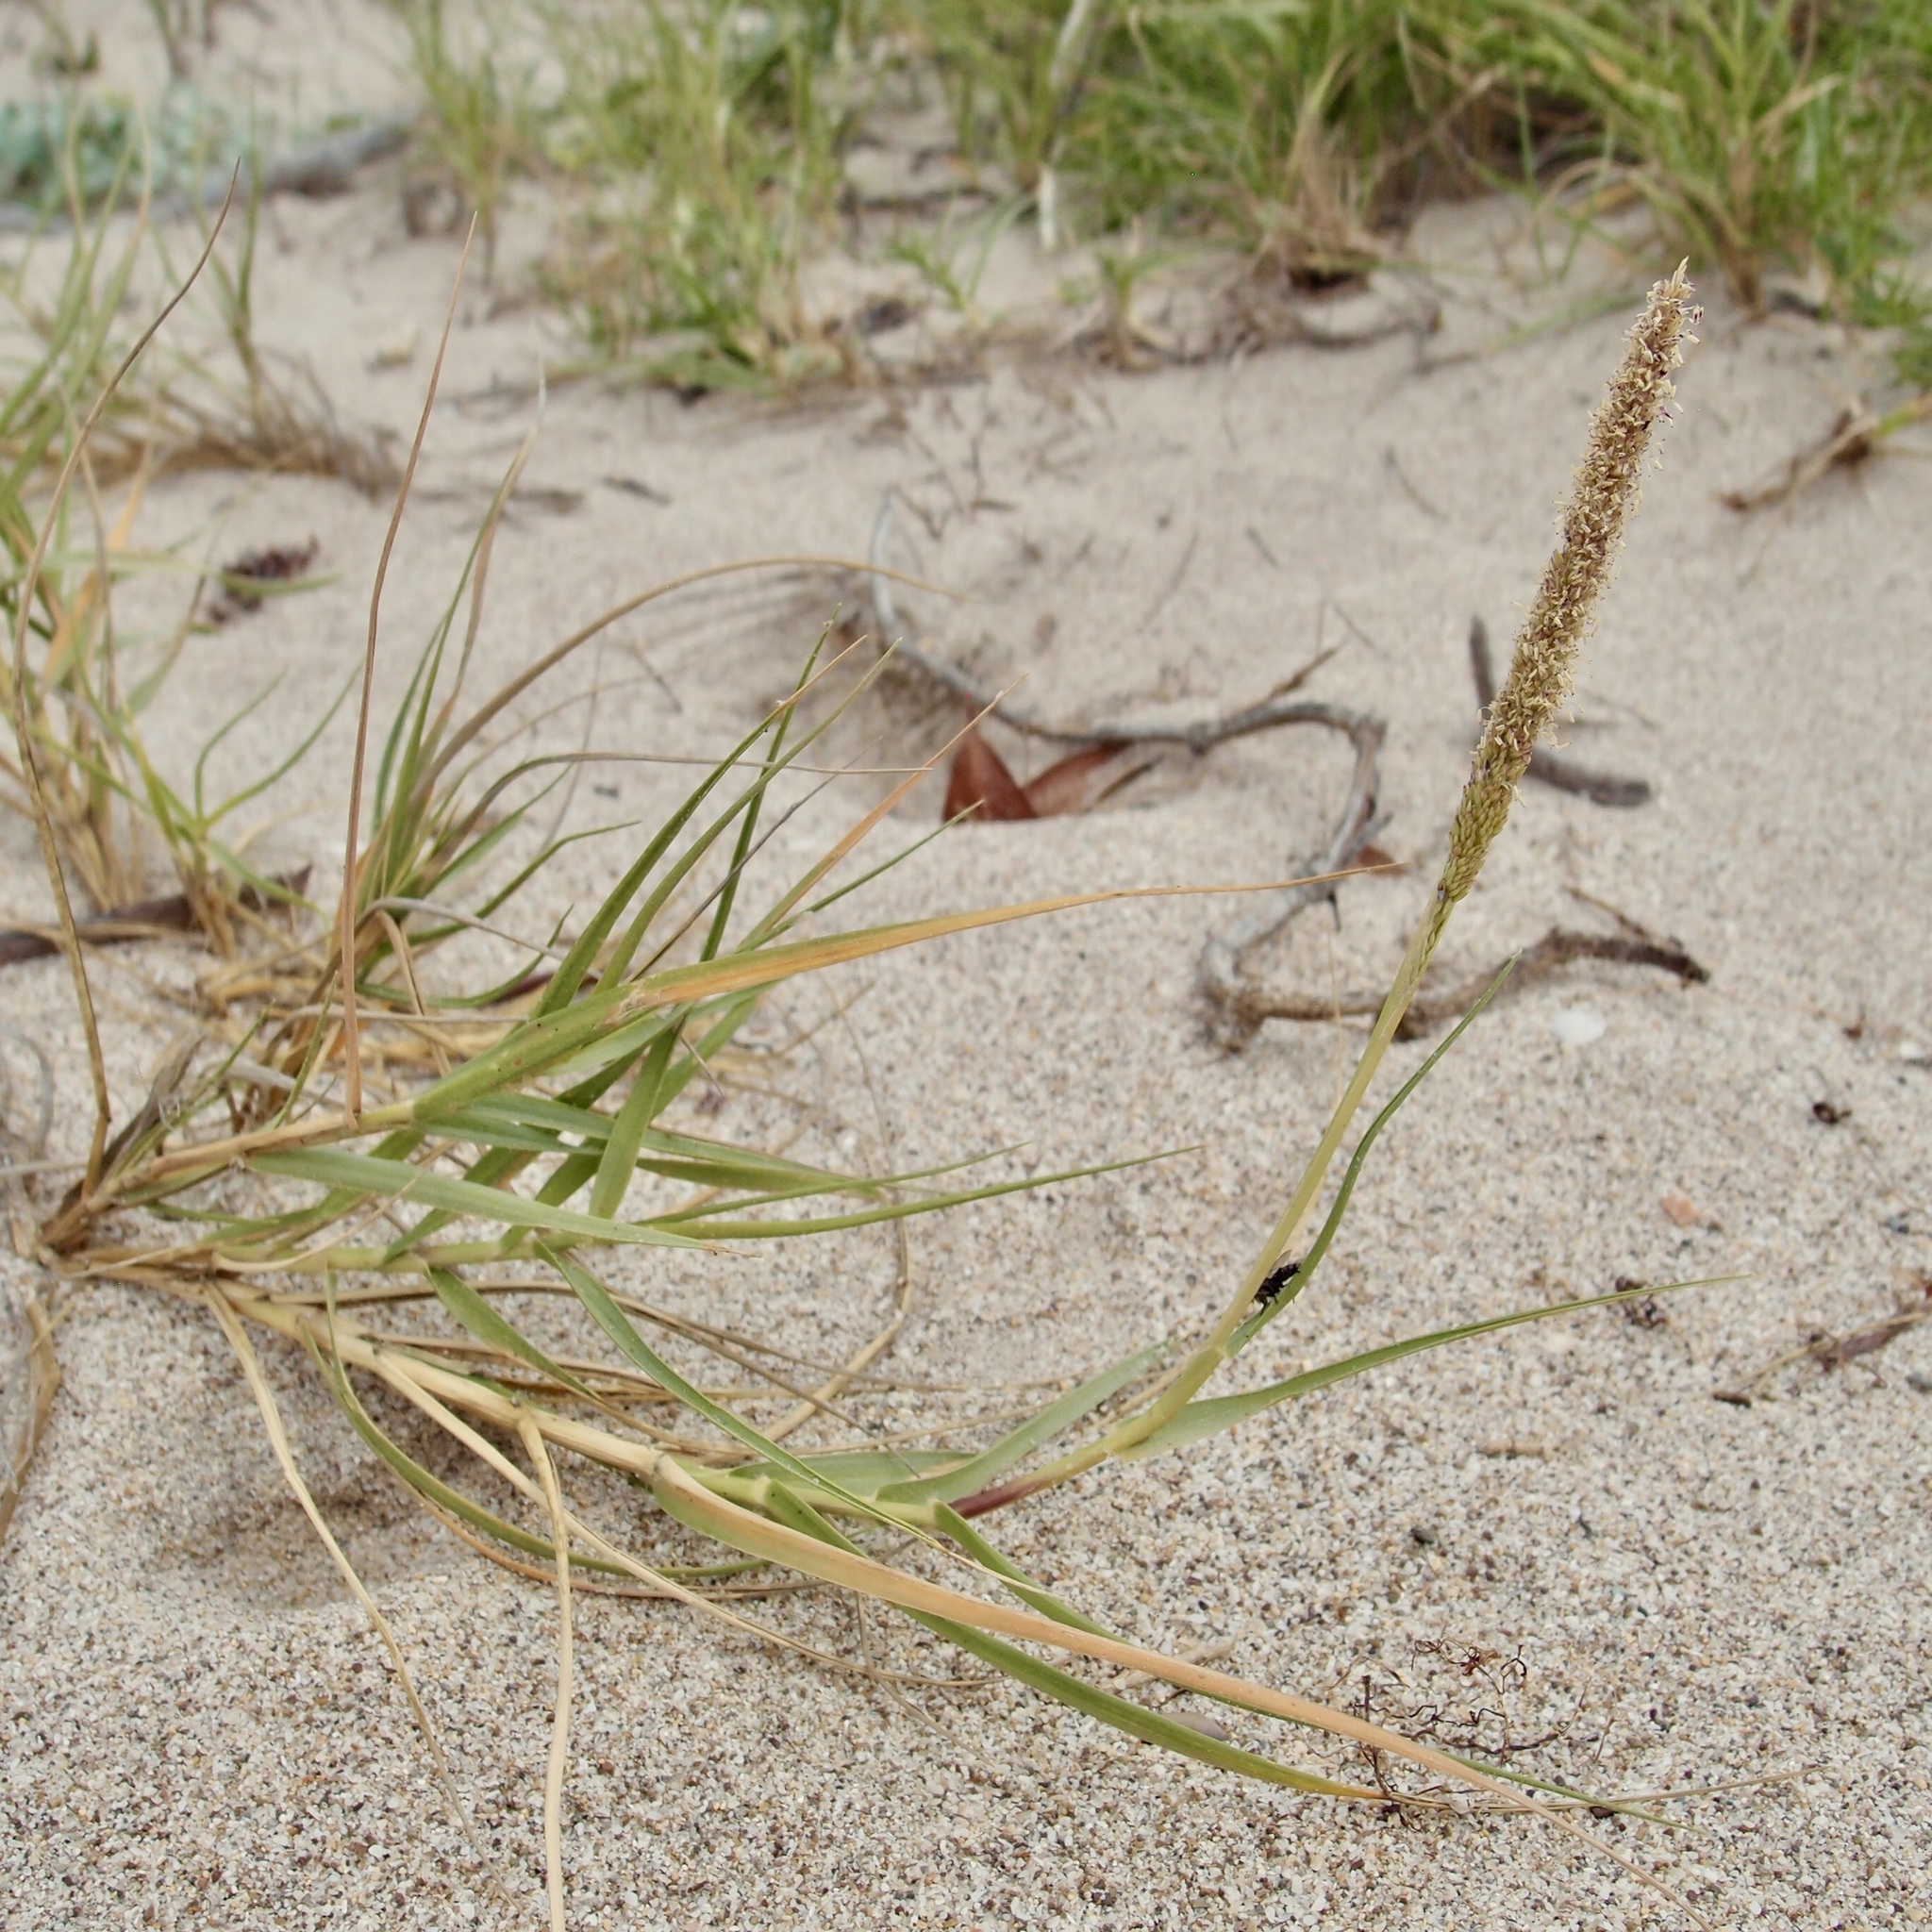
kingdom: Plantae
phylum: Tracheophyta
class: Liliopsida
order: Poales
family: Poaceae
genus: Sporobolus
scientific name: Sporobolus virginicus
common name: Beach dropseed
